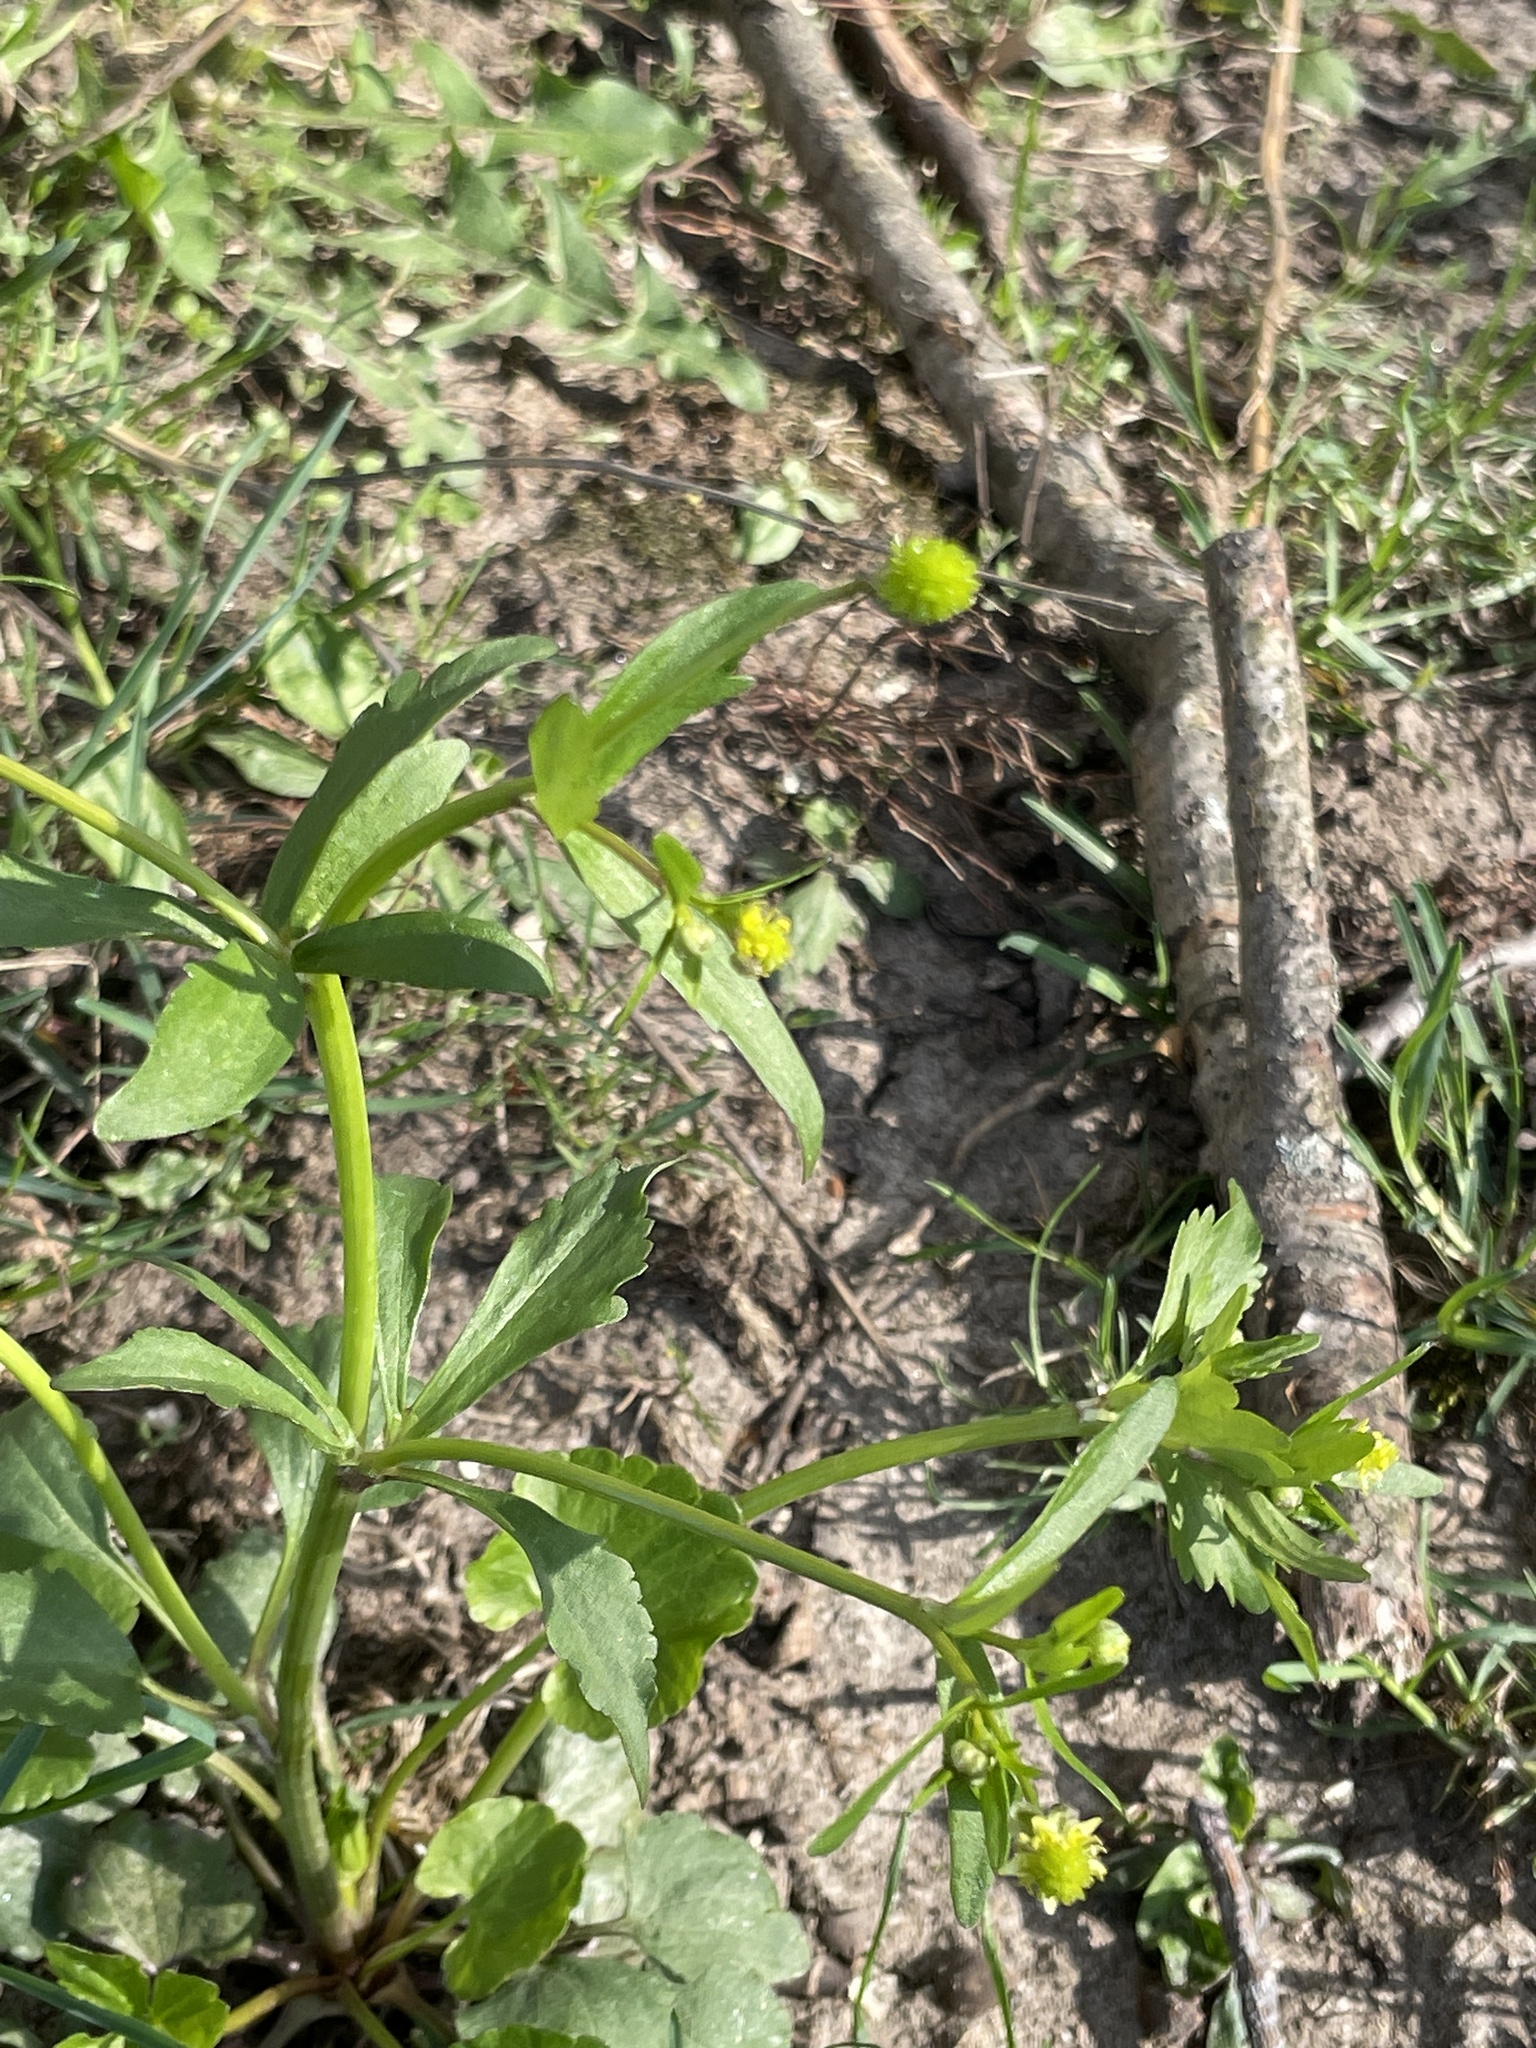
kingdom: Plantae
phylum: Tracheophyta
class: Magnoliopsida
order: Ranunculales
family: Ranunculaceae
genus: Ranunculus
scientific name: Ranunculus abortivus
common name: Early wood buttercup
